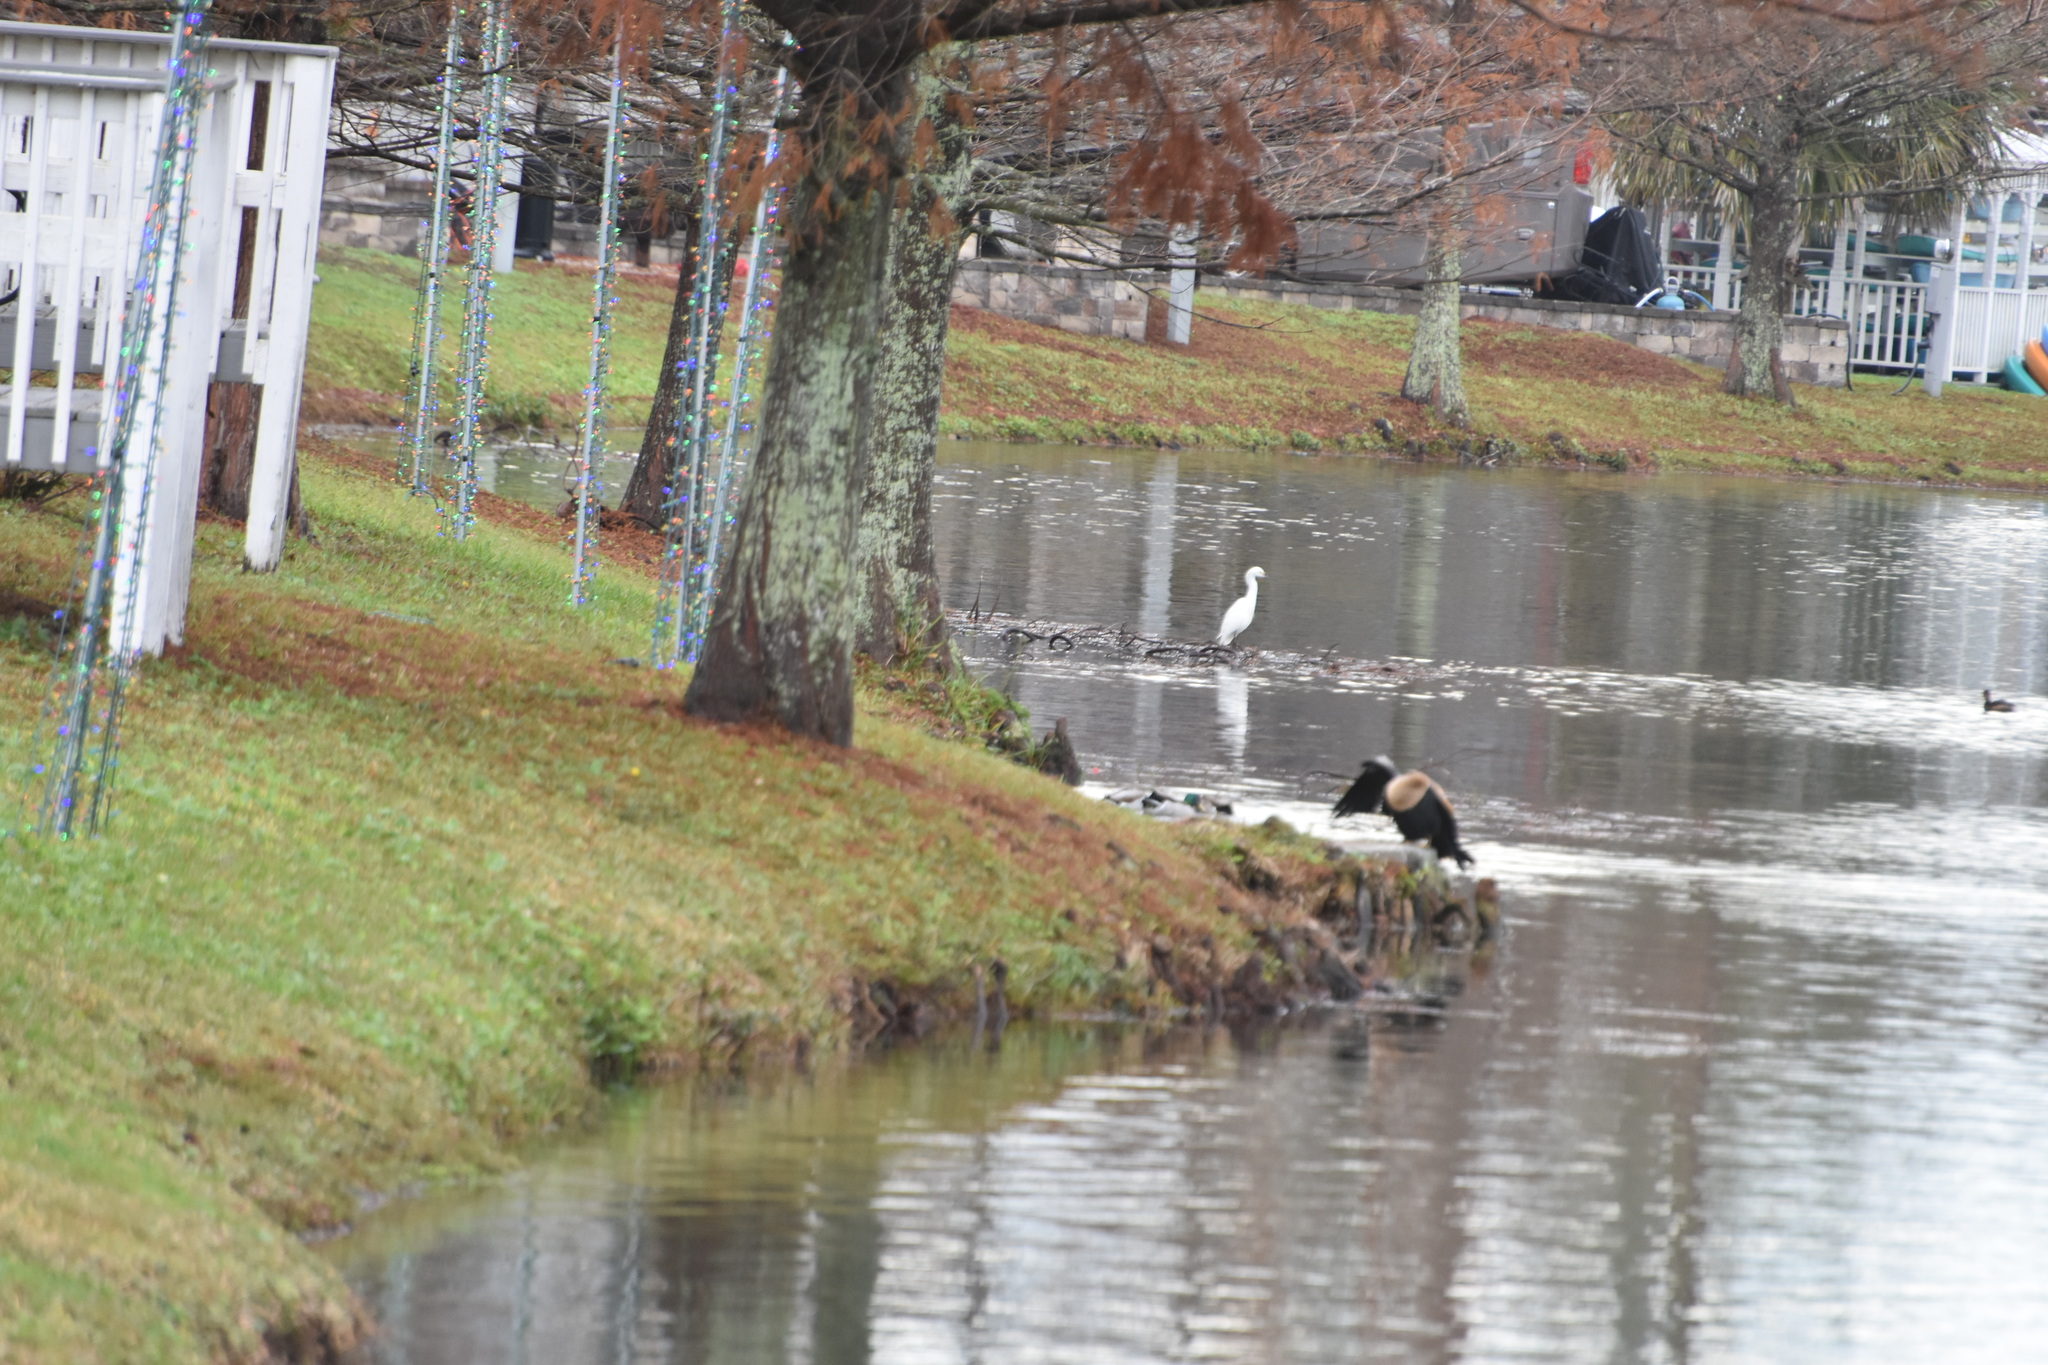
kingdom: Animalia
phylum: Chordata
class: Aves
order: Pelecaniformes
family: Ardeidae
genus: Egretta
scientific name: Egretta thula
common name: Snowy egret
